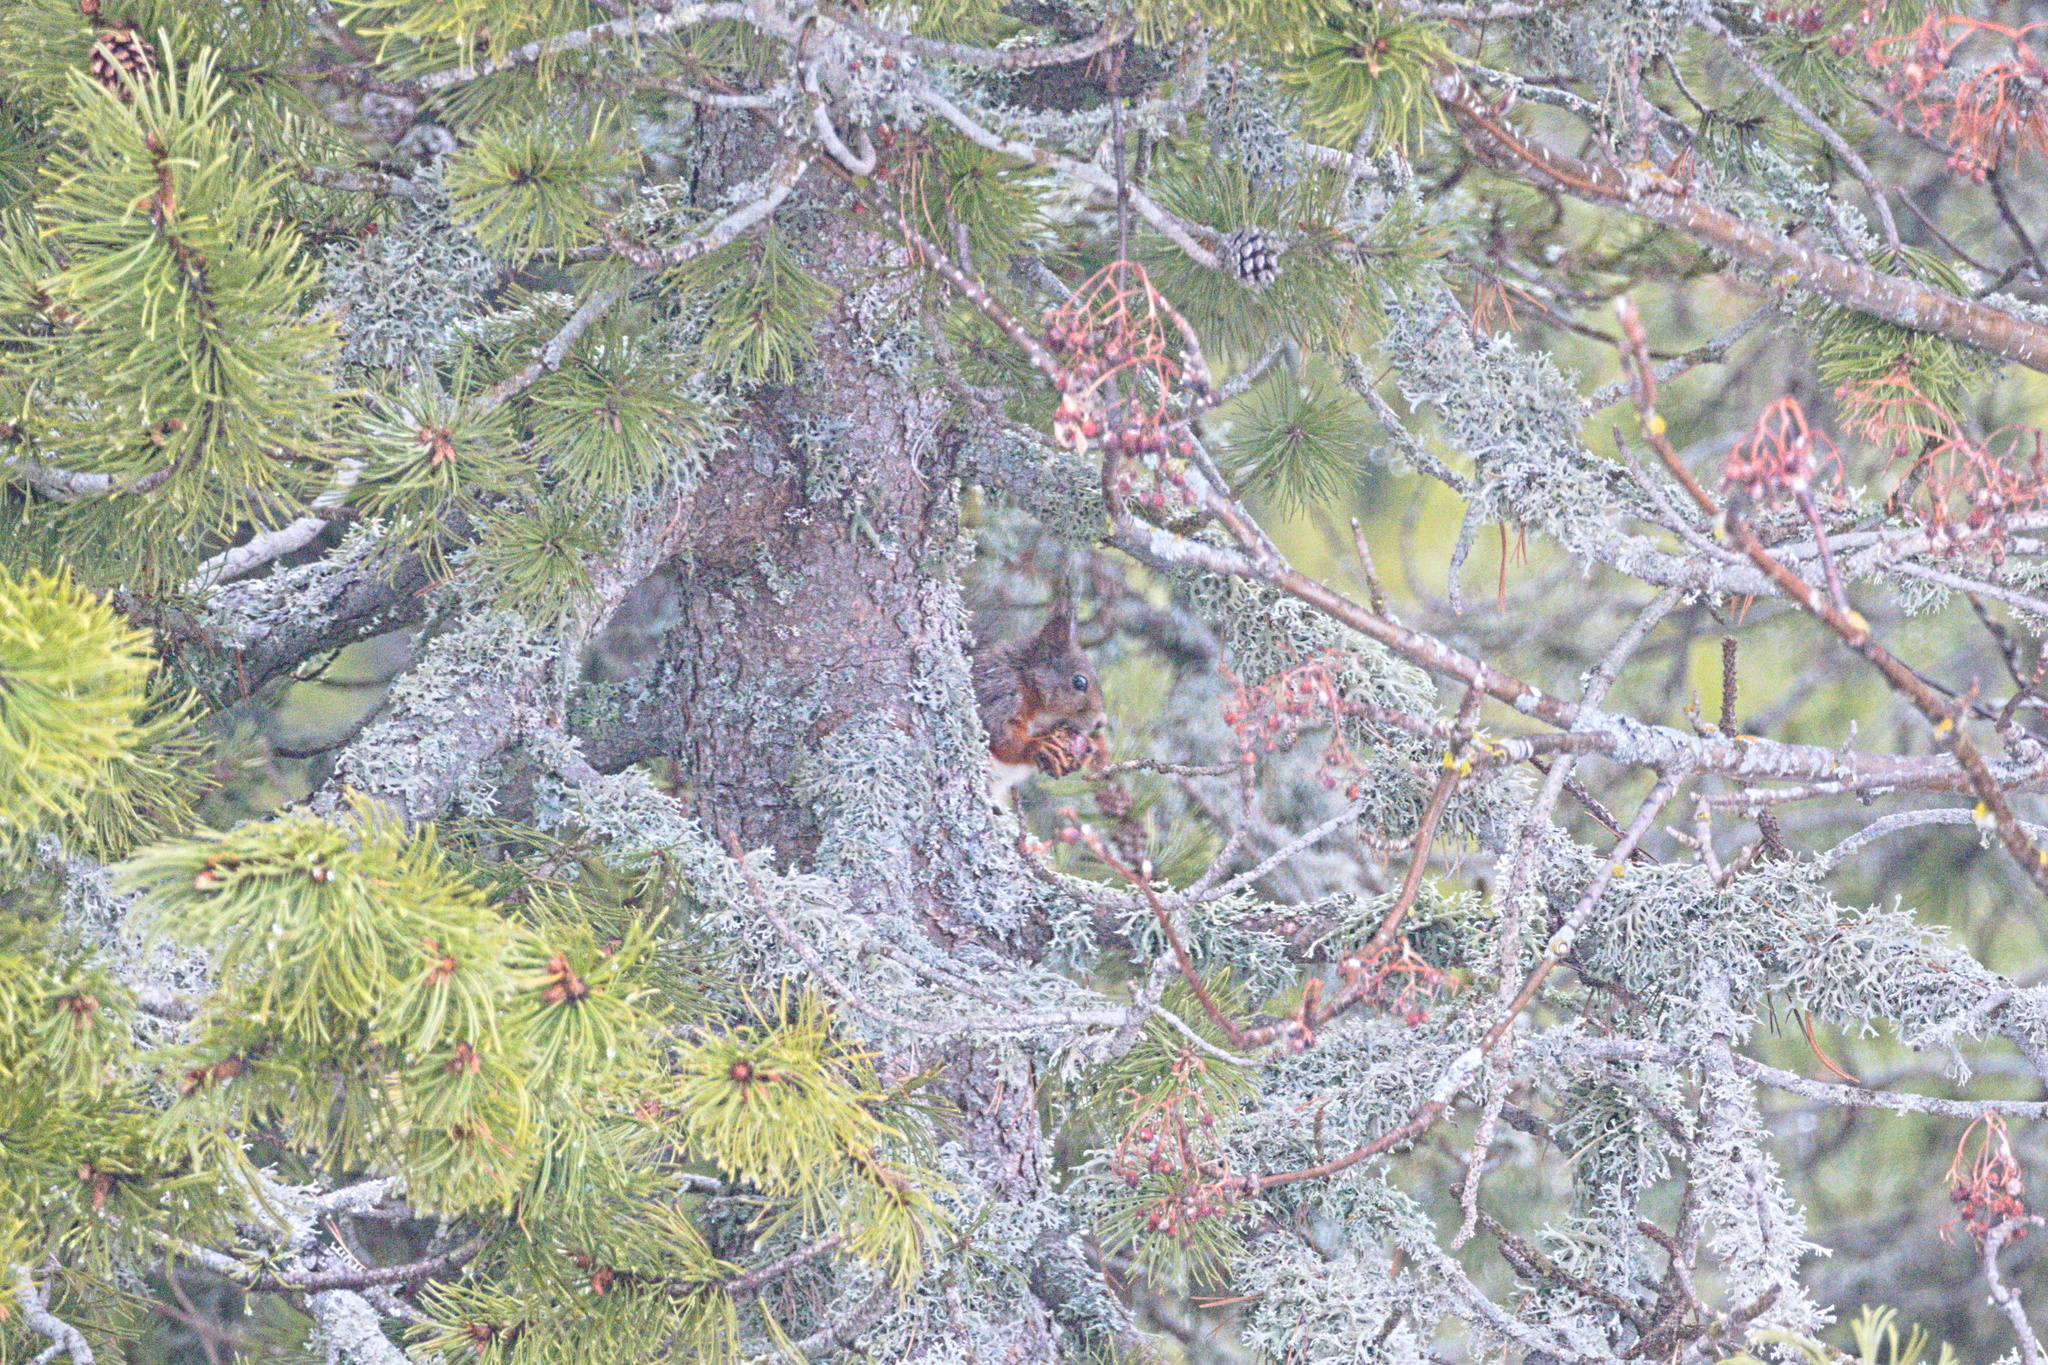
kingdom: Animalia
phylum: Chordata
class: Mammalia
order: Rodentia
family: Sciuridae
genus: Sciurus
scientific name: Sciurus vulgaris
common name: Eurasian red squirrel
